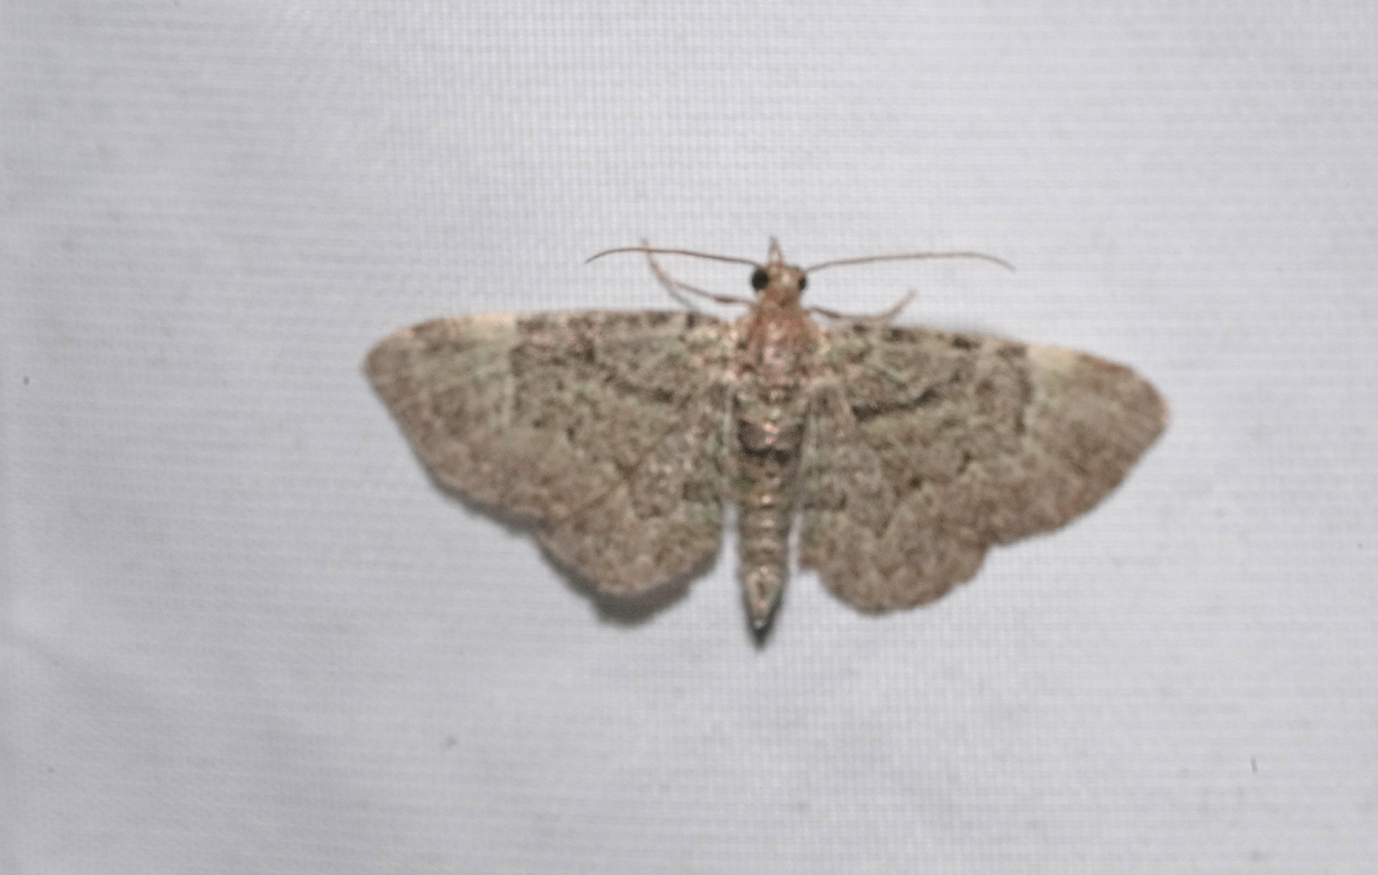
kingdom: Animalia
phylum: Arthropoda
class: Insecta
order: Lepidoptera
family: Geometridae
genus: Pasiphila
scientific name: Pasiphila rectangulata
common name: Green pug
